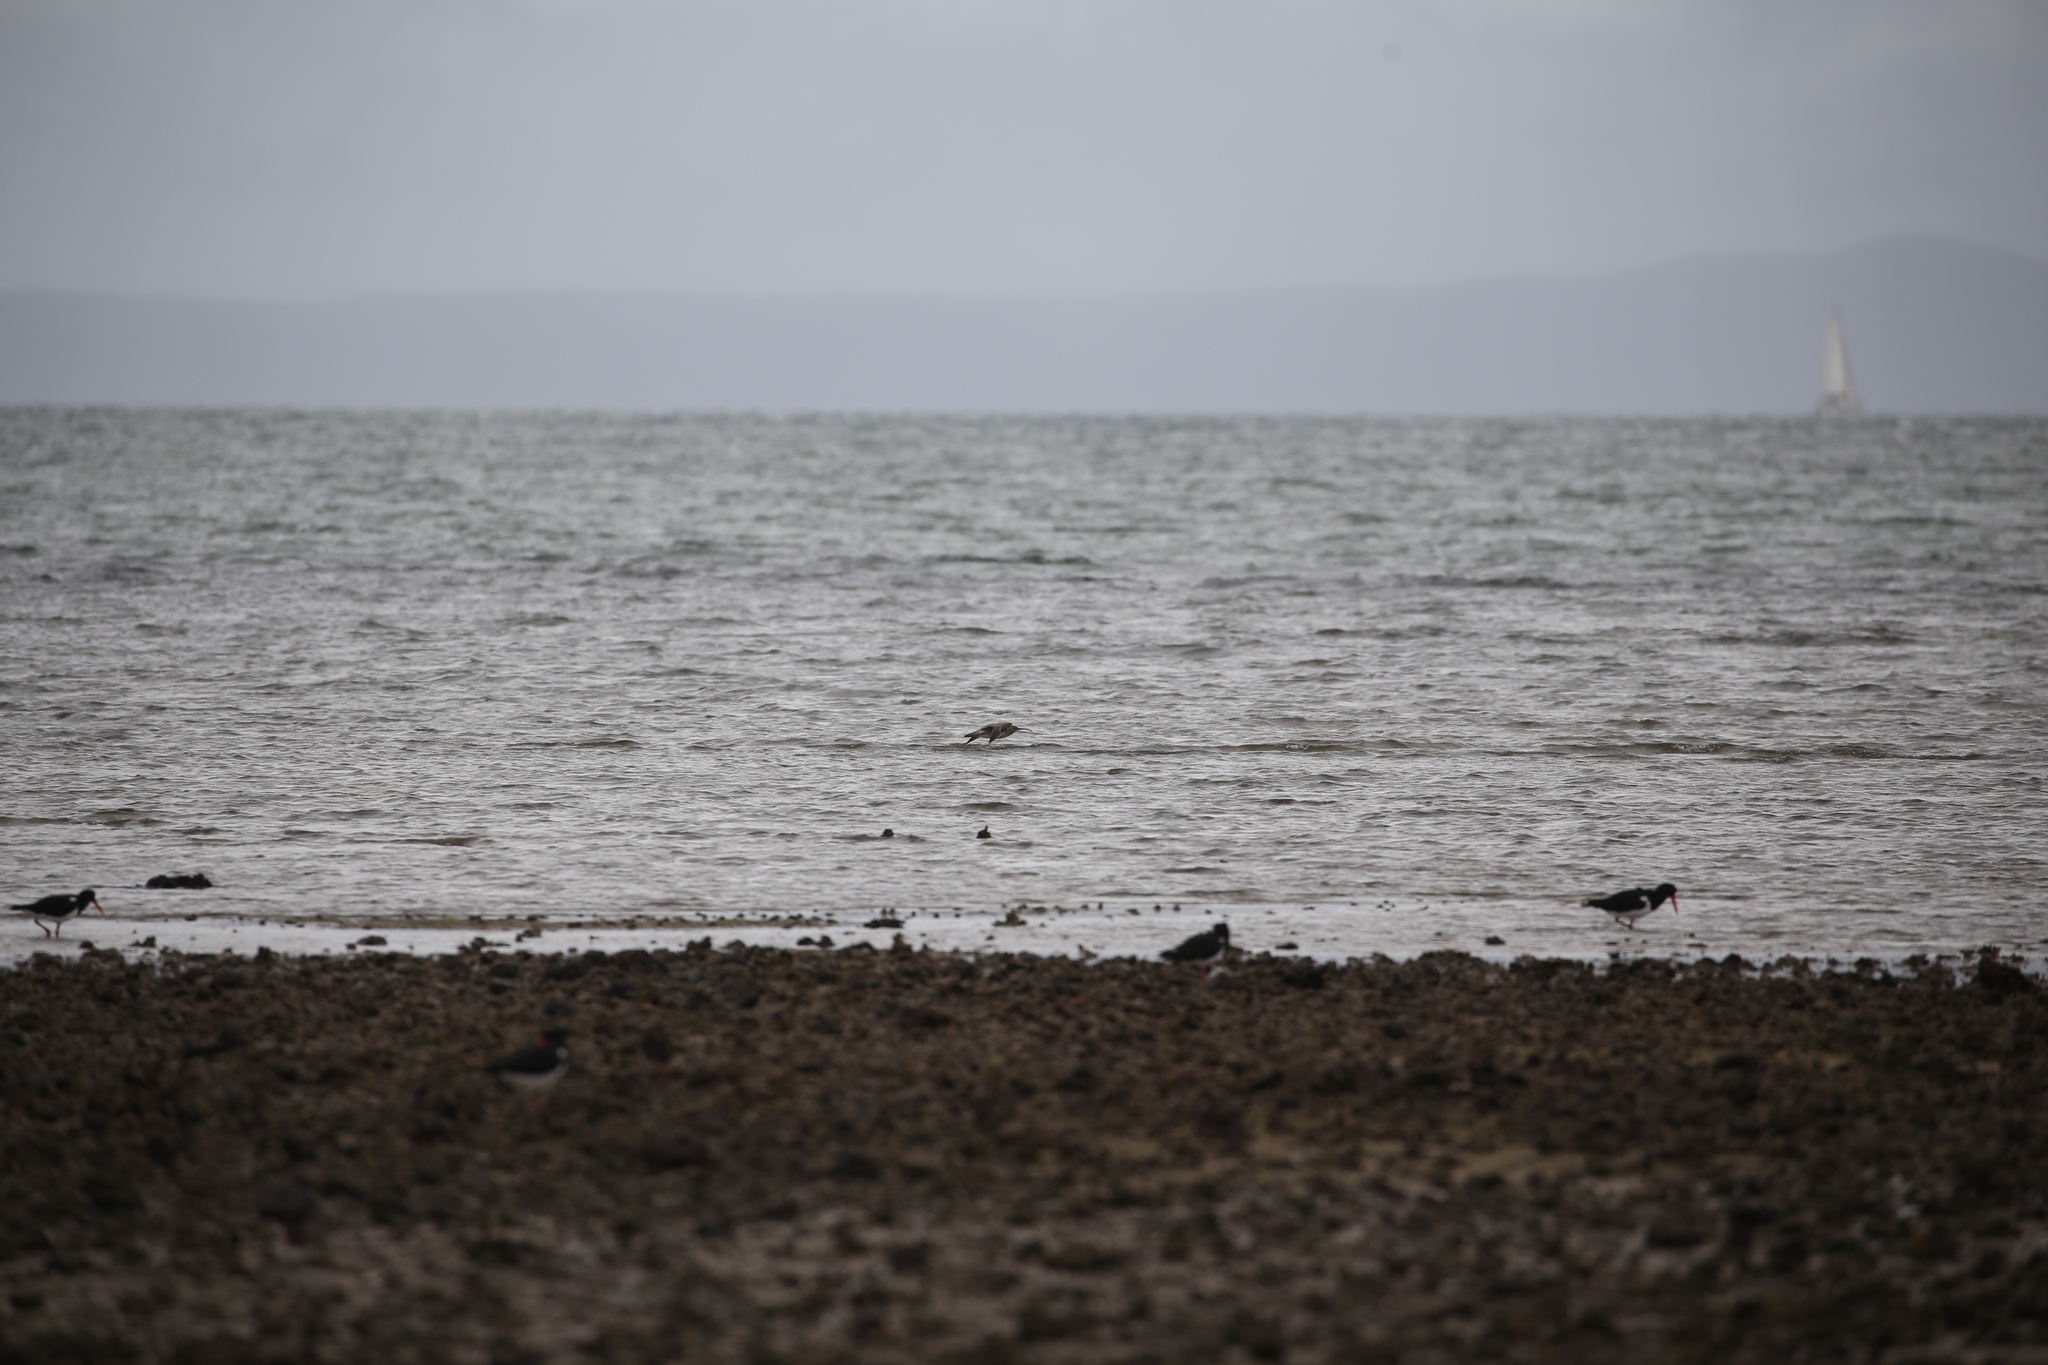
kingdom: Animalia
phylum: Chordata
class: Aves
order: Charadriiformes
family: Scolopacidae
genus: Numenius
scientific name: Numenius madagascariensis
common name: Far eastern curlew
